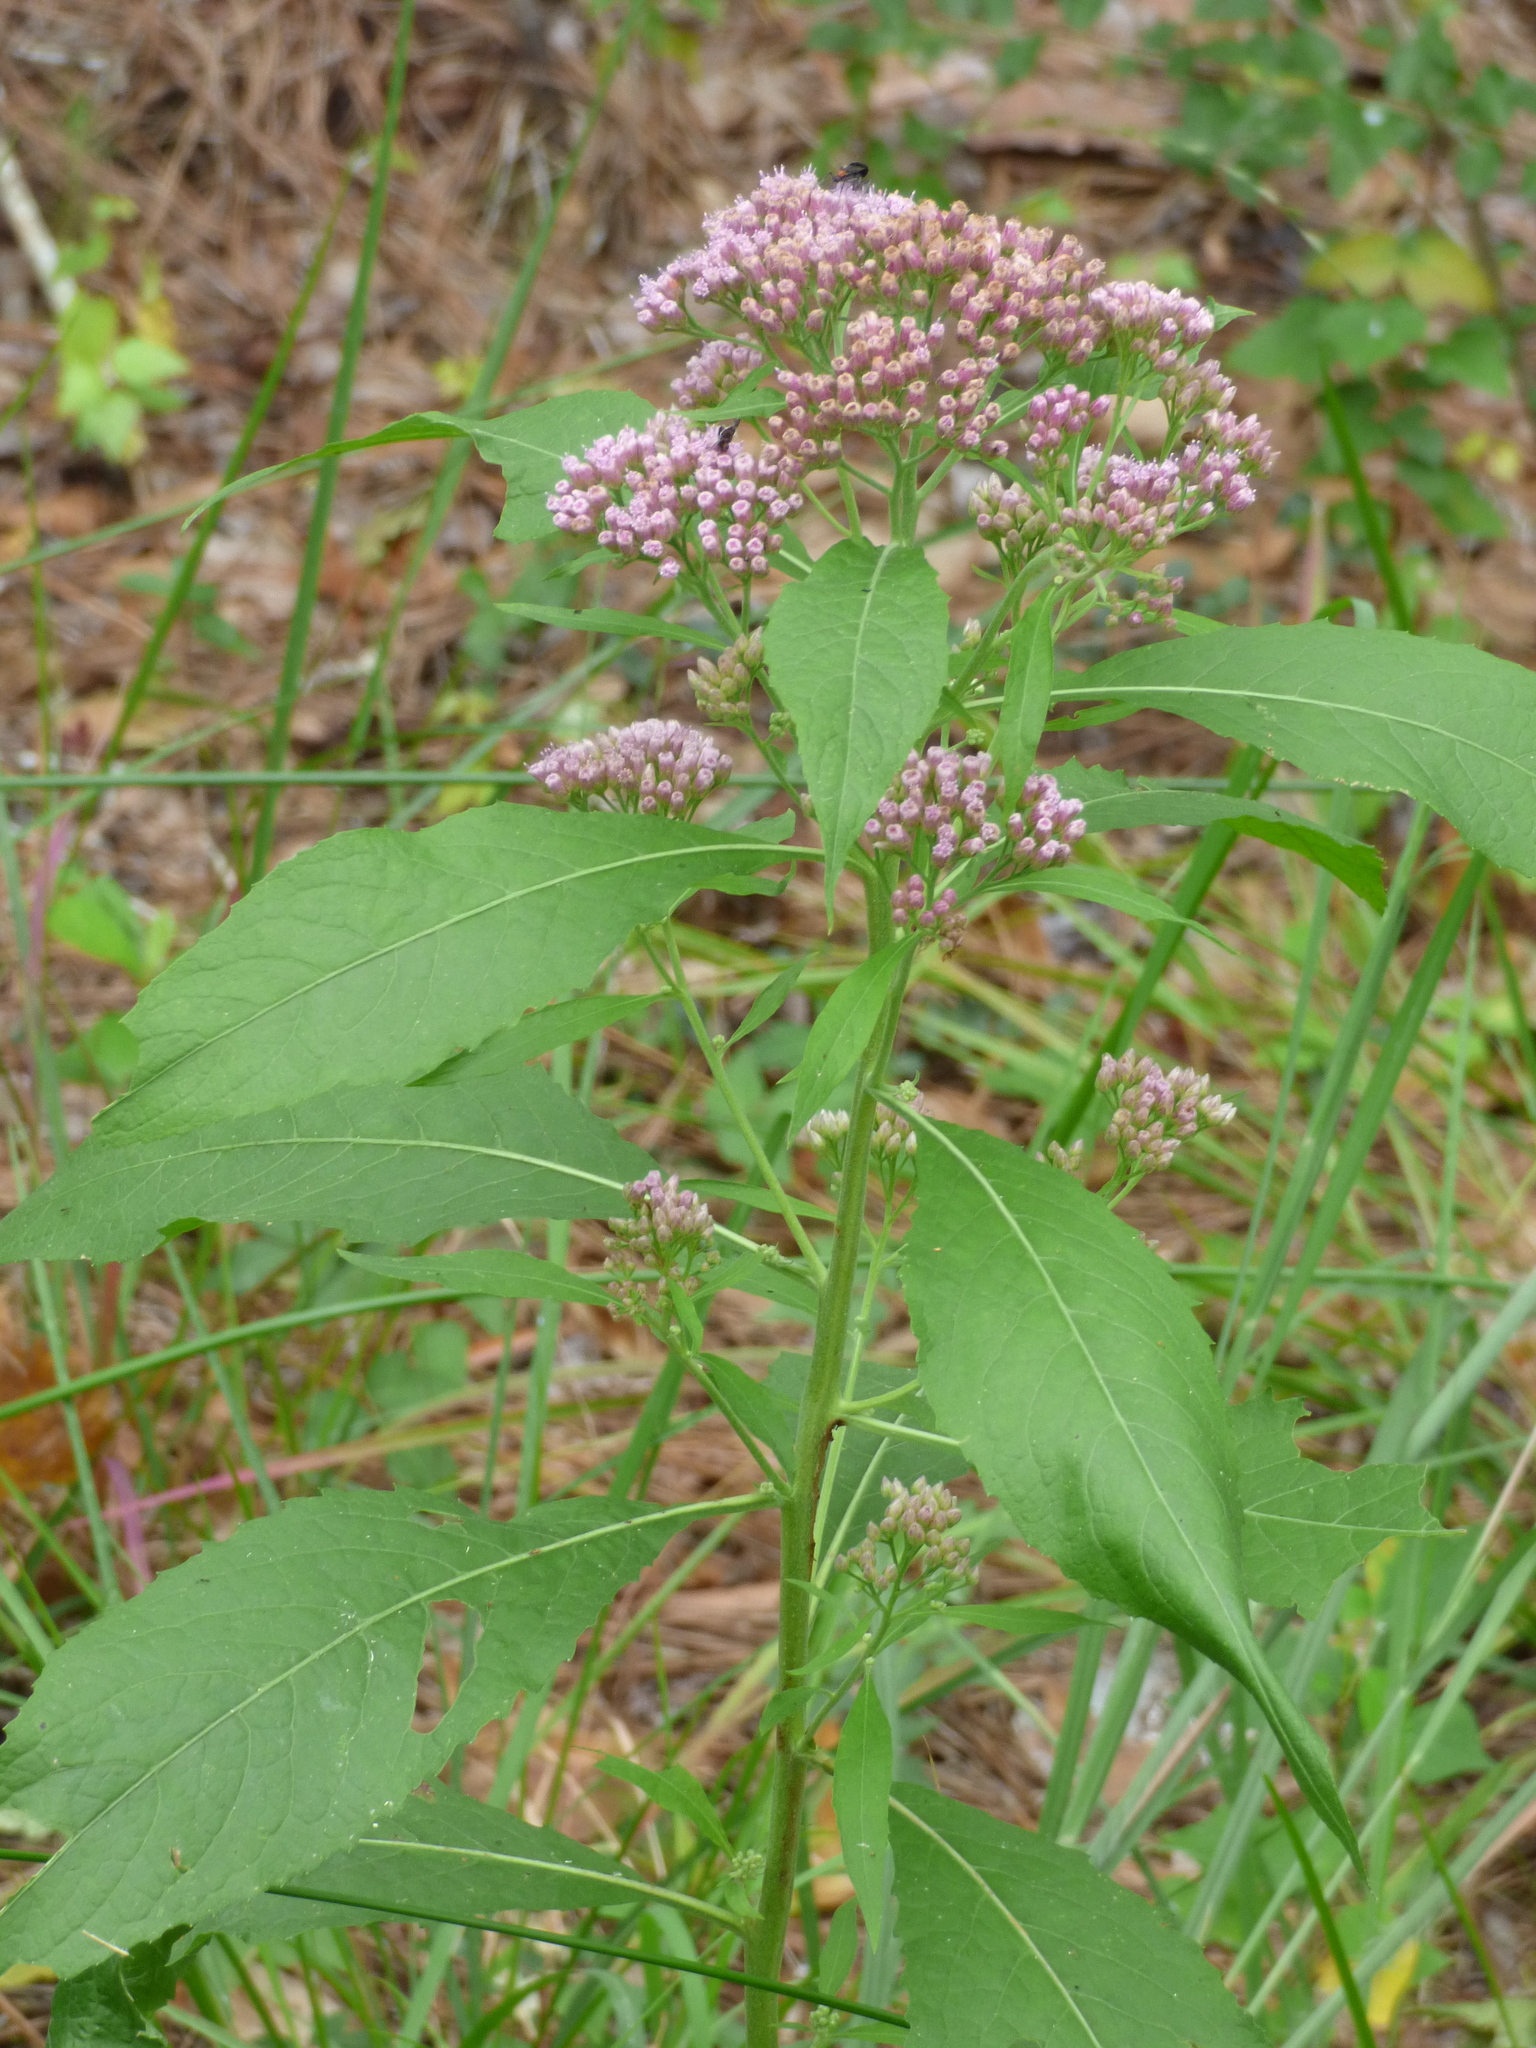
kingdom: Plantae
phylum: Tracheophyta
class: Magnoliopsida
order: Asterales
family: Asteraceae
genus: Pluchea
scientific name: Pluchea camphorata
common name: Camphor pluchea
